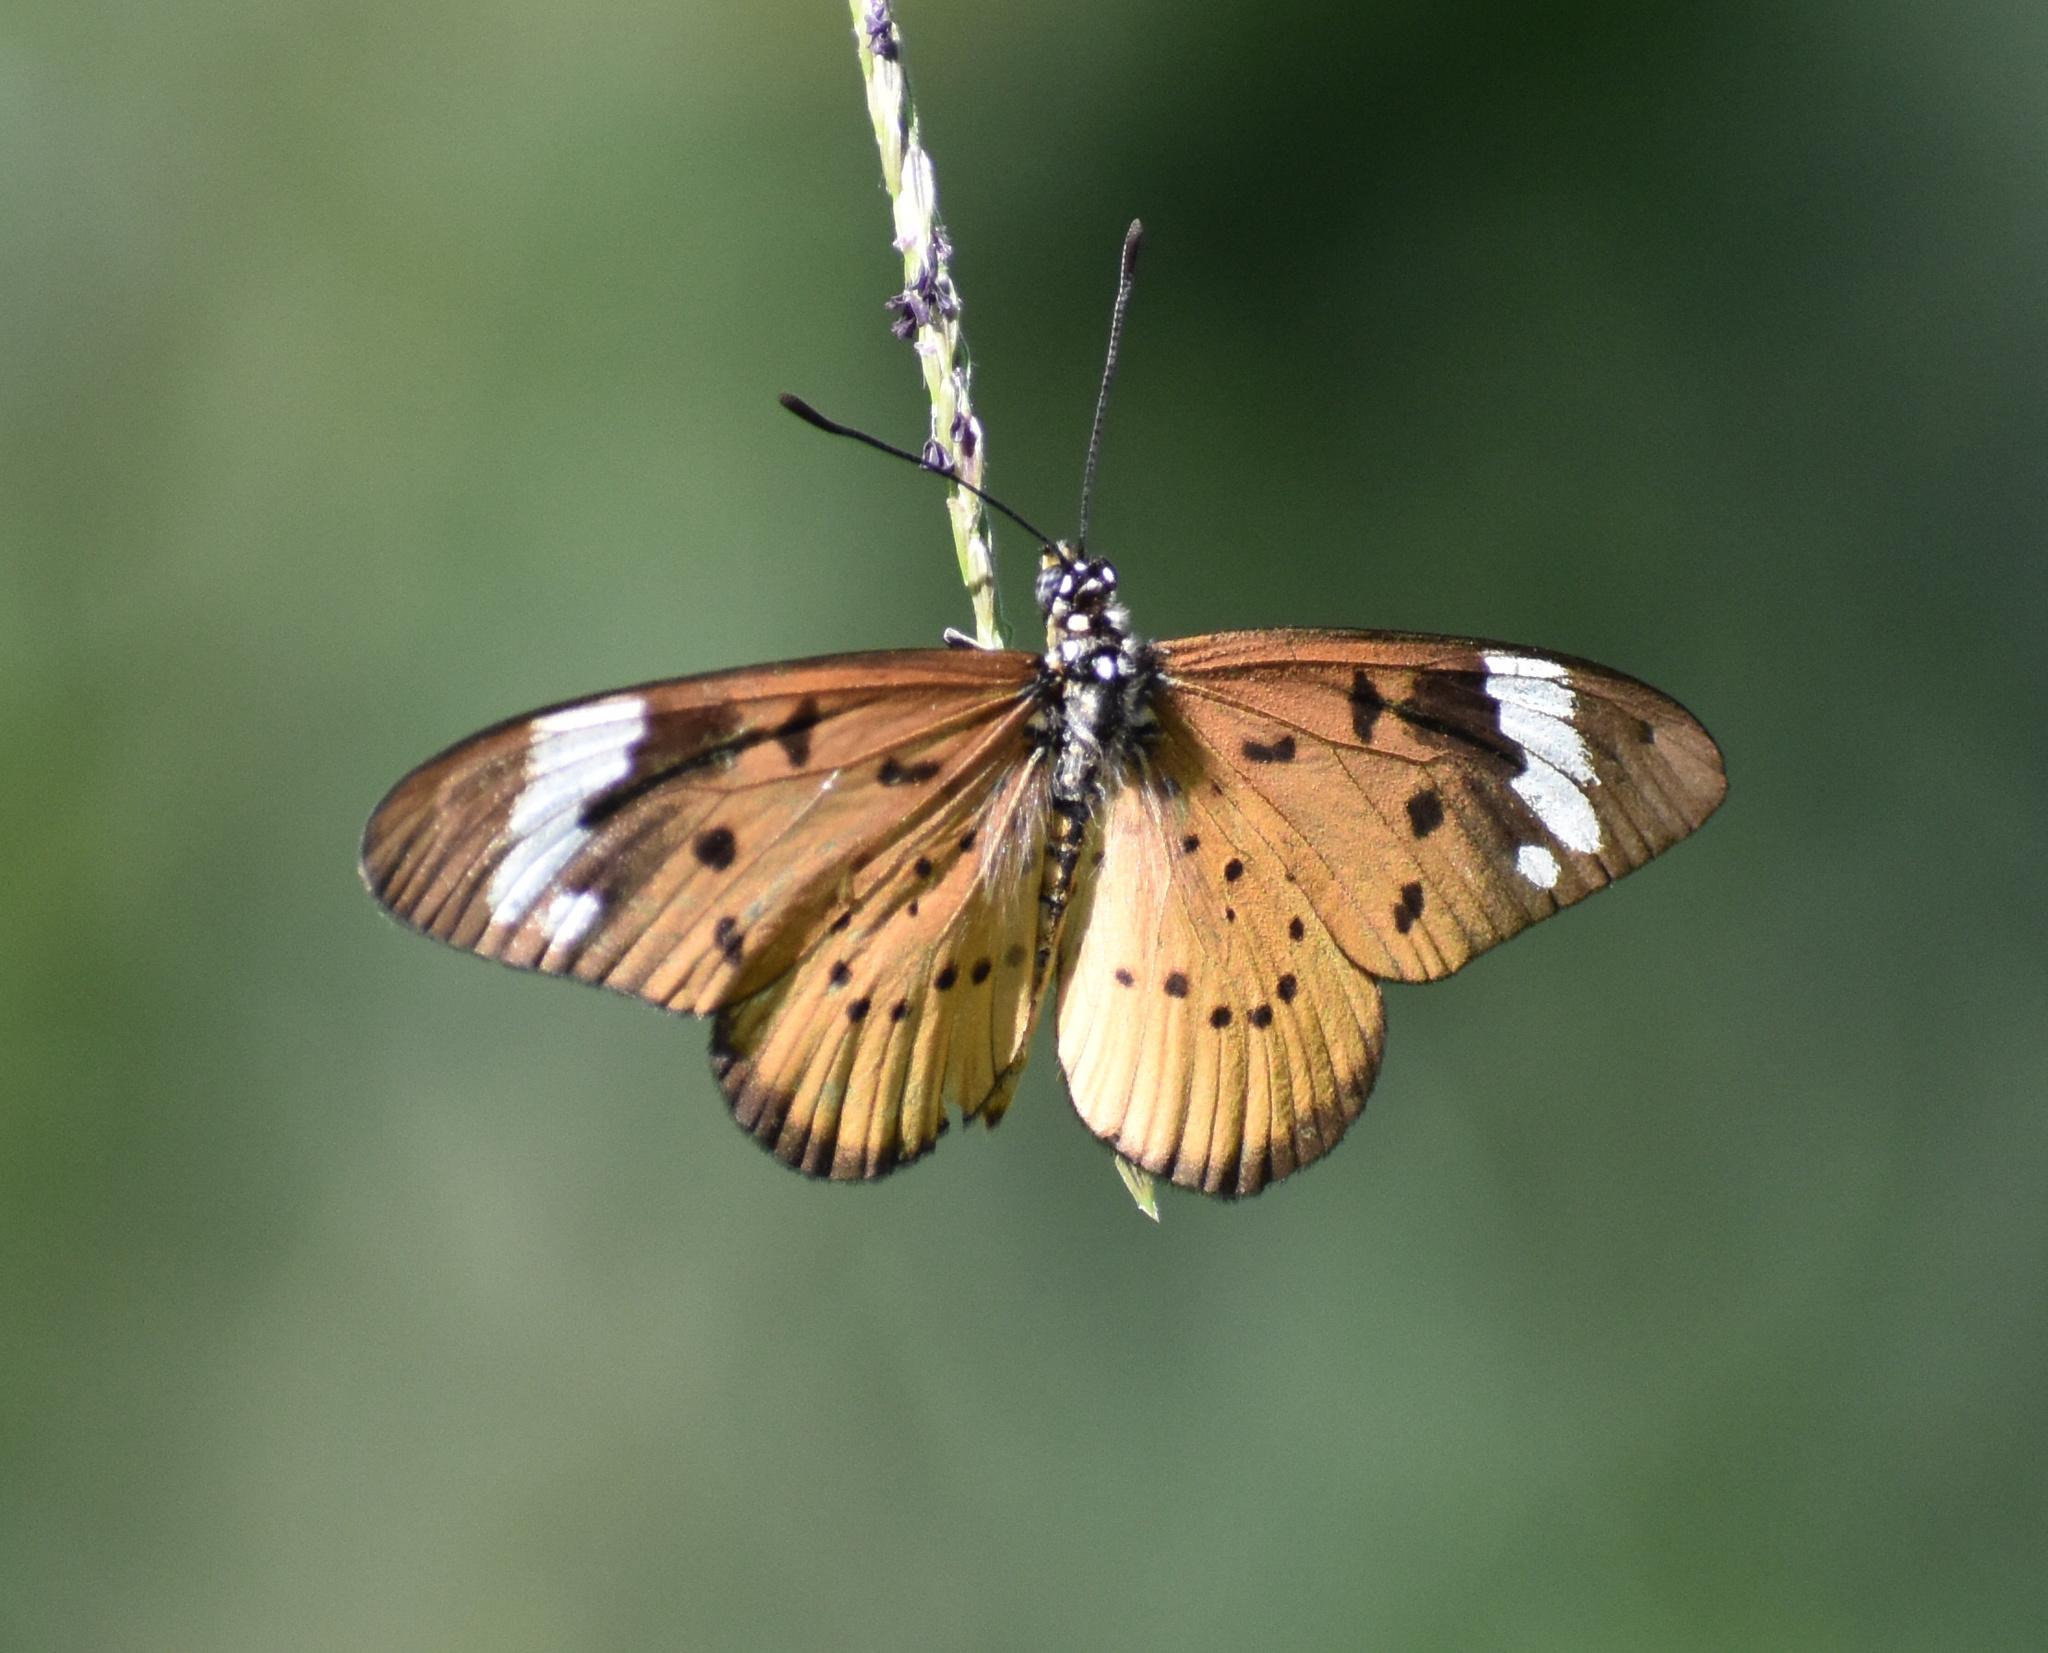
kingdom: Animalia
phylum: Arthropoda
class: Insecta
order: Lepidoptera
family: Nymphalidae
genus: Acraea
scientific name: Acraea Telchinia encedon
